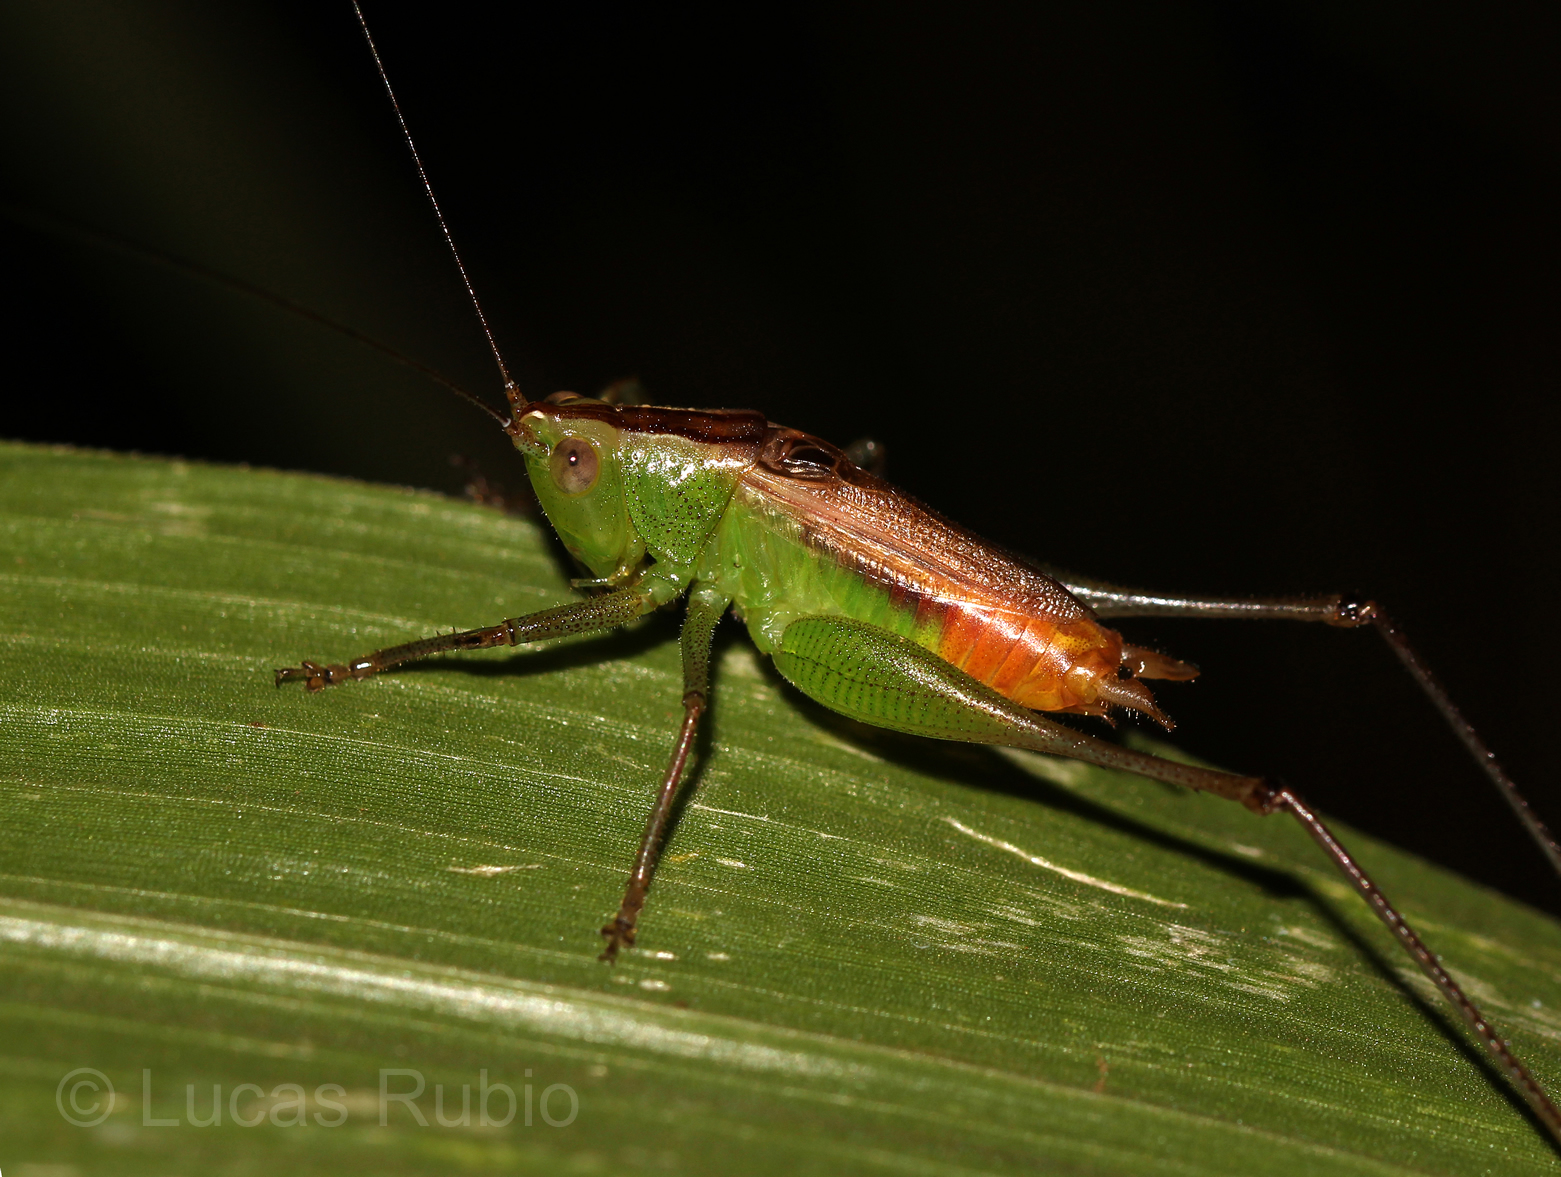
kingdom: Animalia
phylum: Arthropoda
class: Insecta
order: Orthoptera
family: Tettigoniidae
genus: Conocephalus
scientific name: Conocephalus saltator
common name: Katydid
